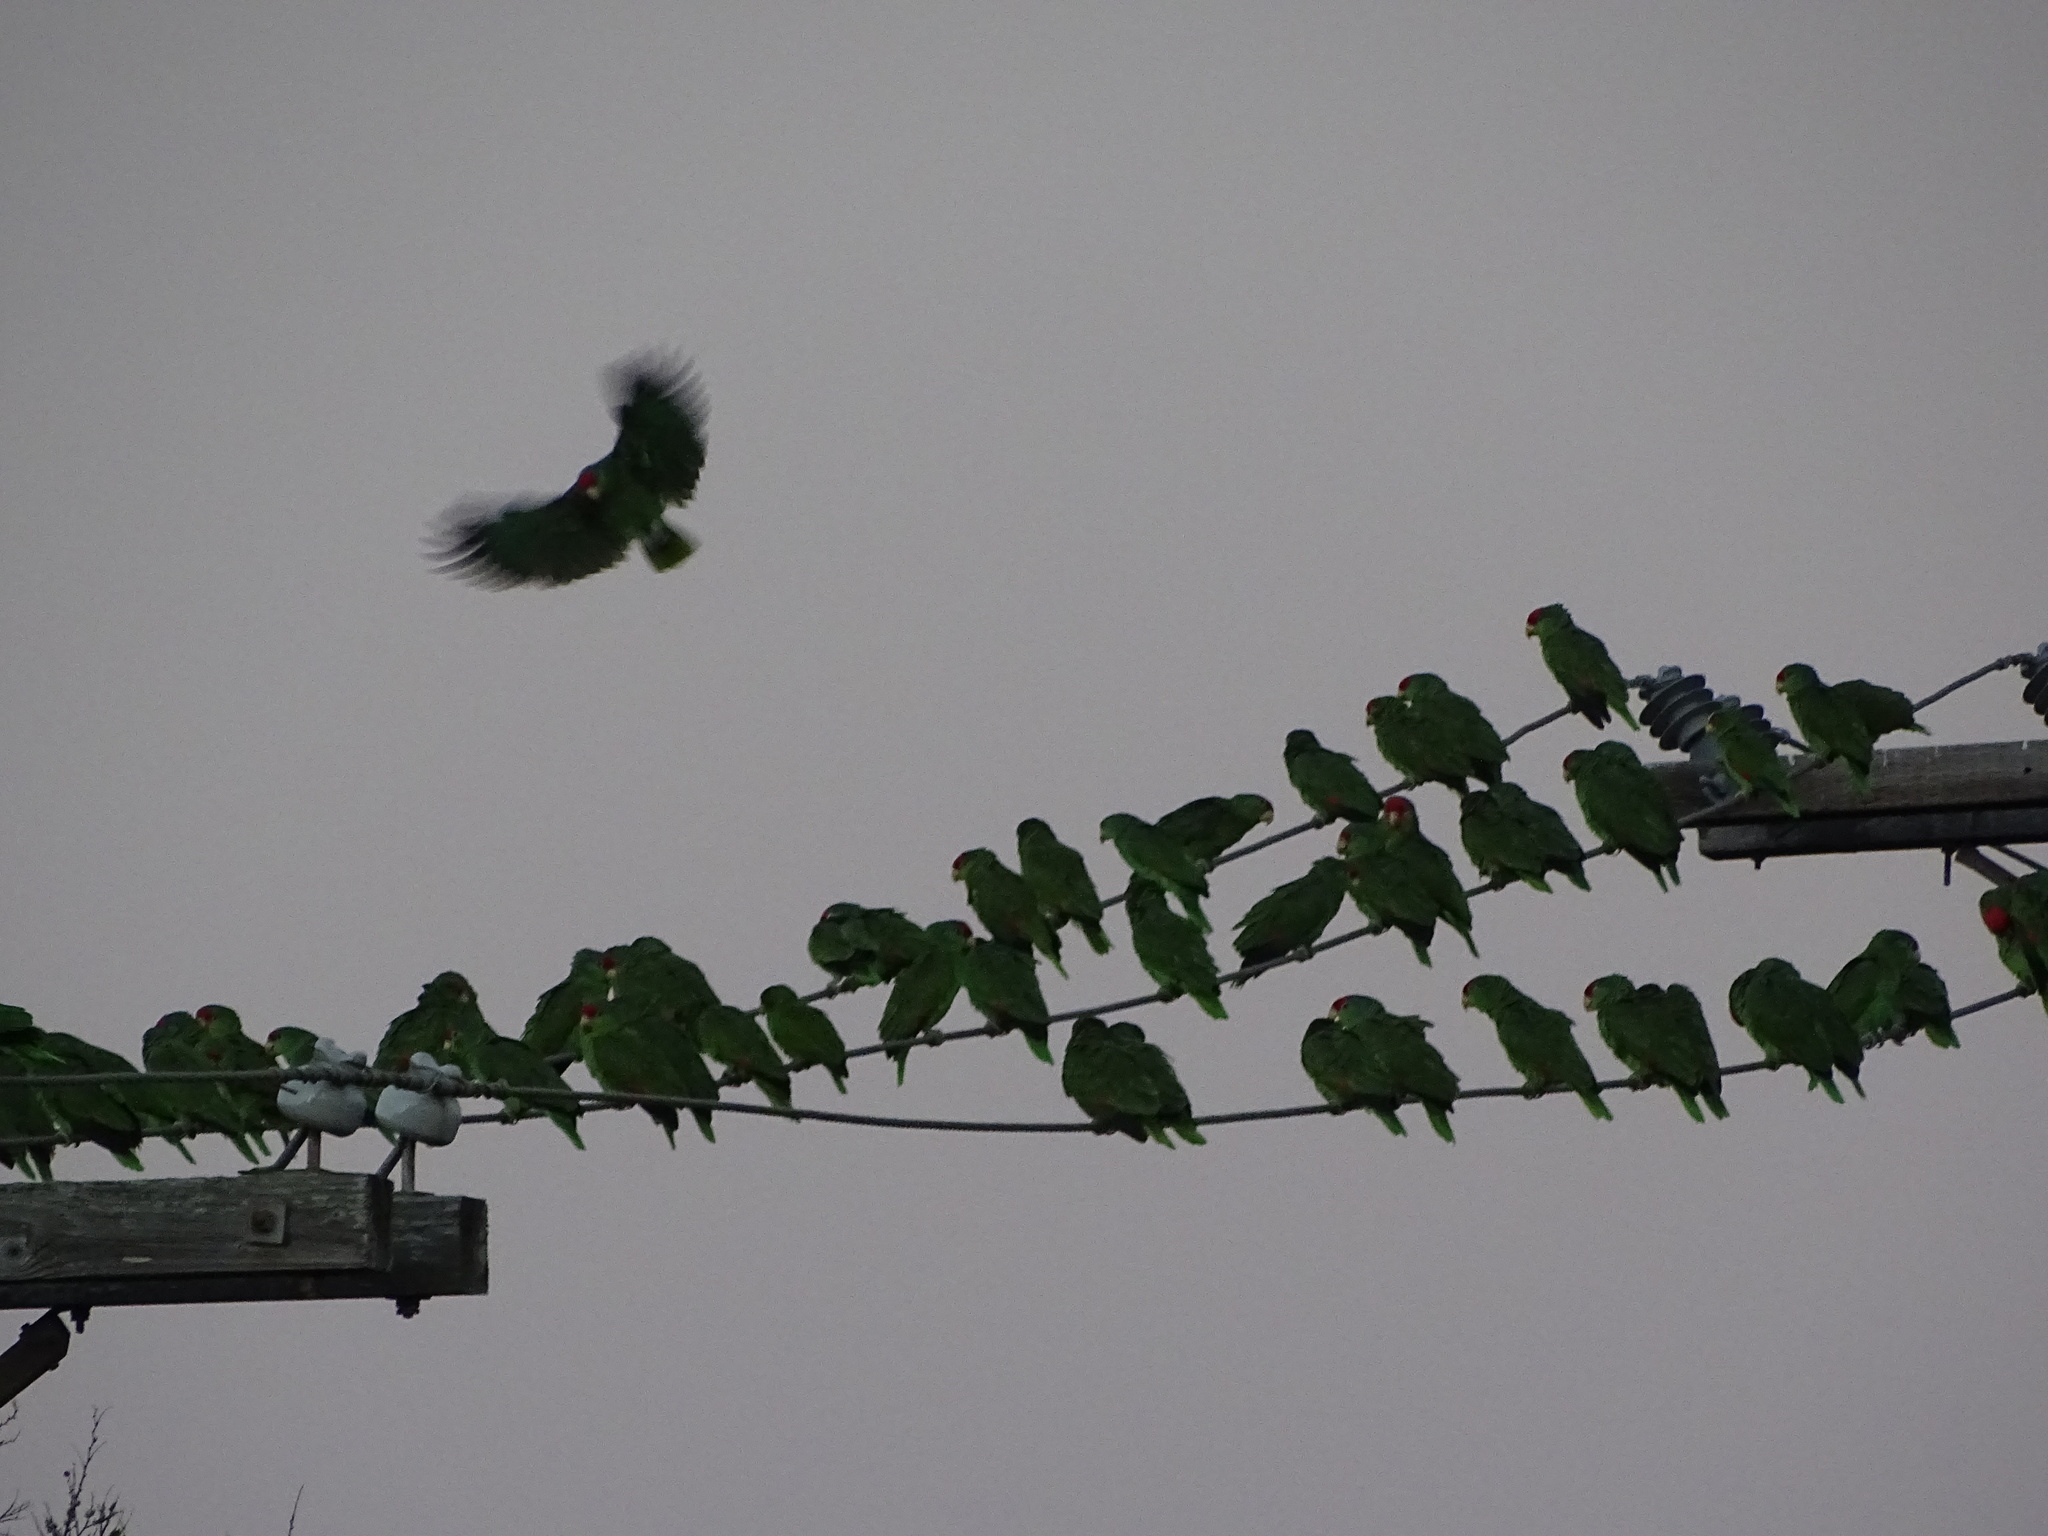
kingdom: Animalia
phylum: Chordata
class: Aves
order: Psittaciformes
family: Psittacidae
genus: Amazona
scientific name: Amazona viridigenalis
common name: Red-crowned amazon
